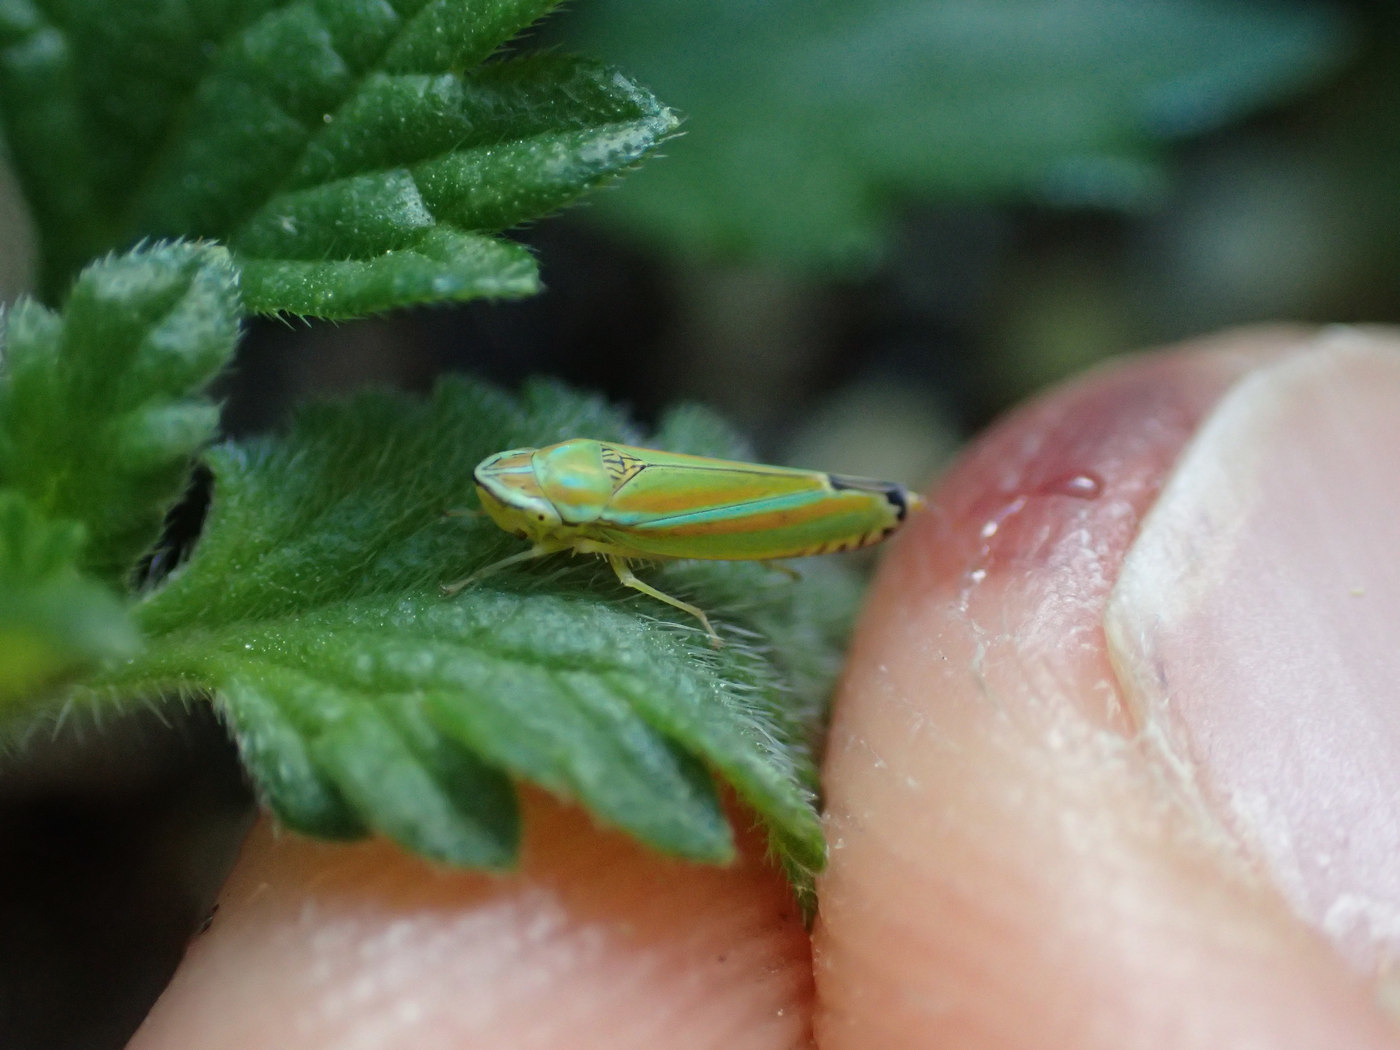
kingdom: Animalia
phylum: Arthropoda
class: Insecta
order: Hemiptera
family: Cicadellidae
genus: Graphocephala
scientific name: Graphocephala versuta
